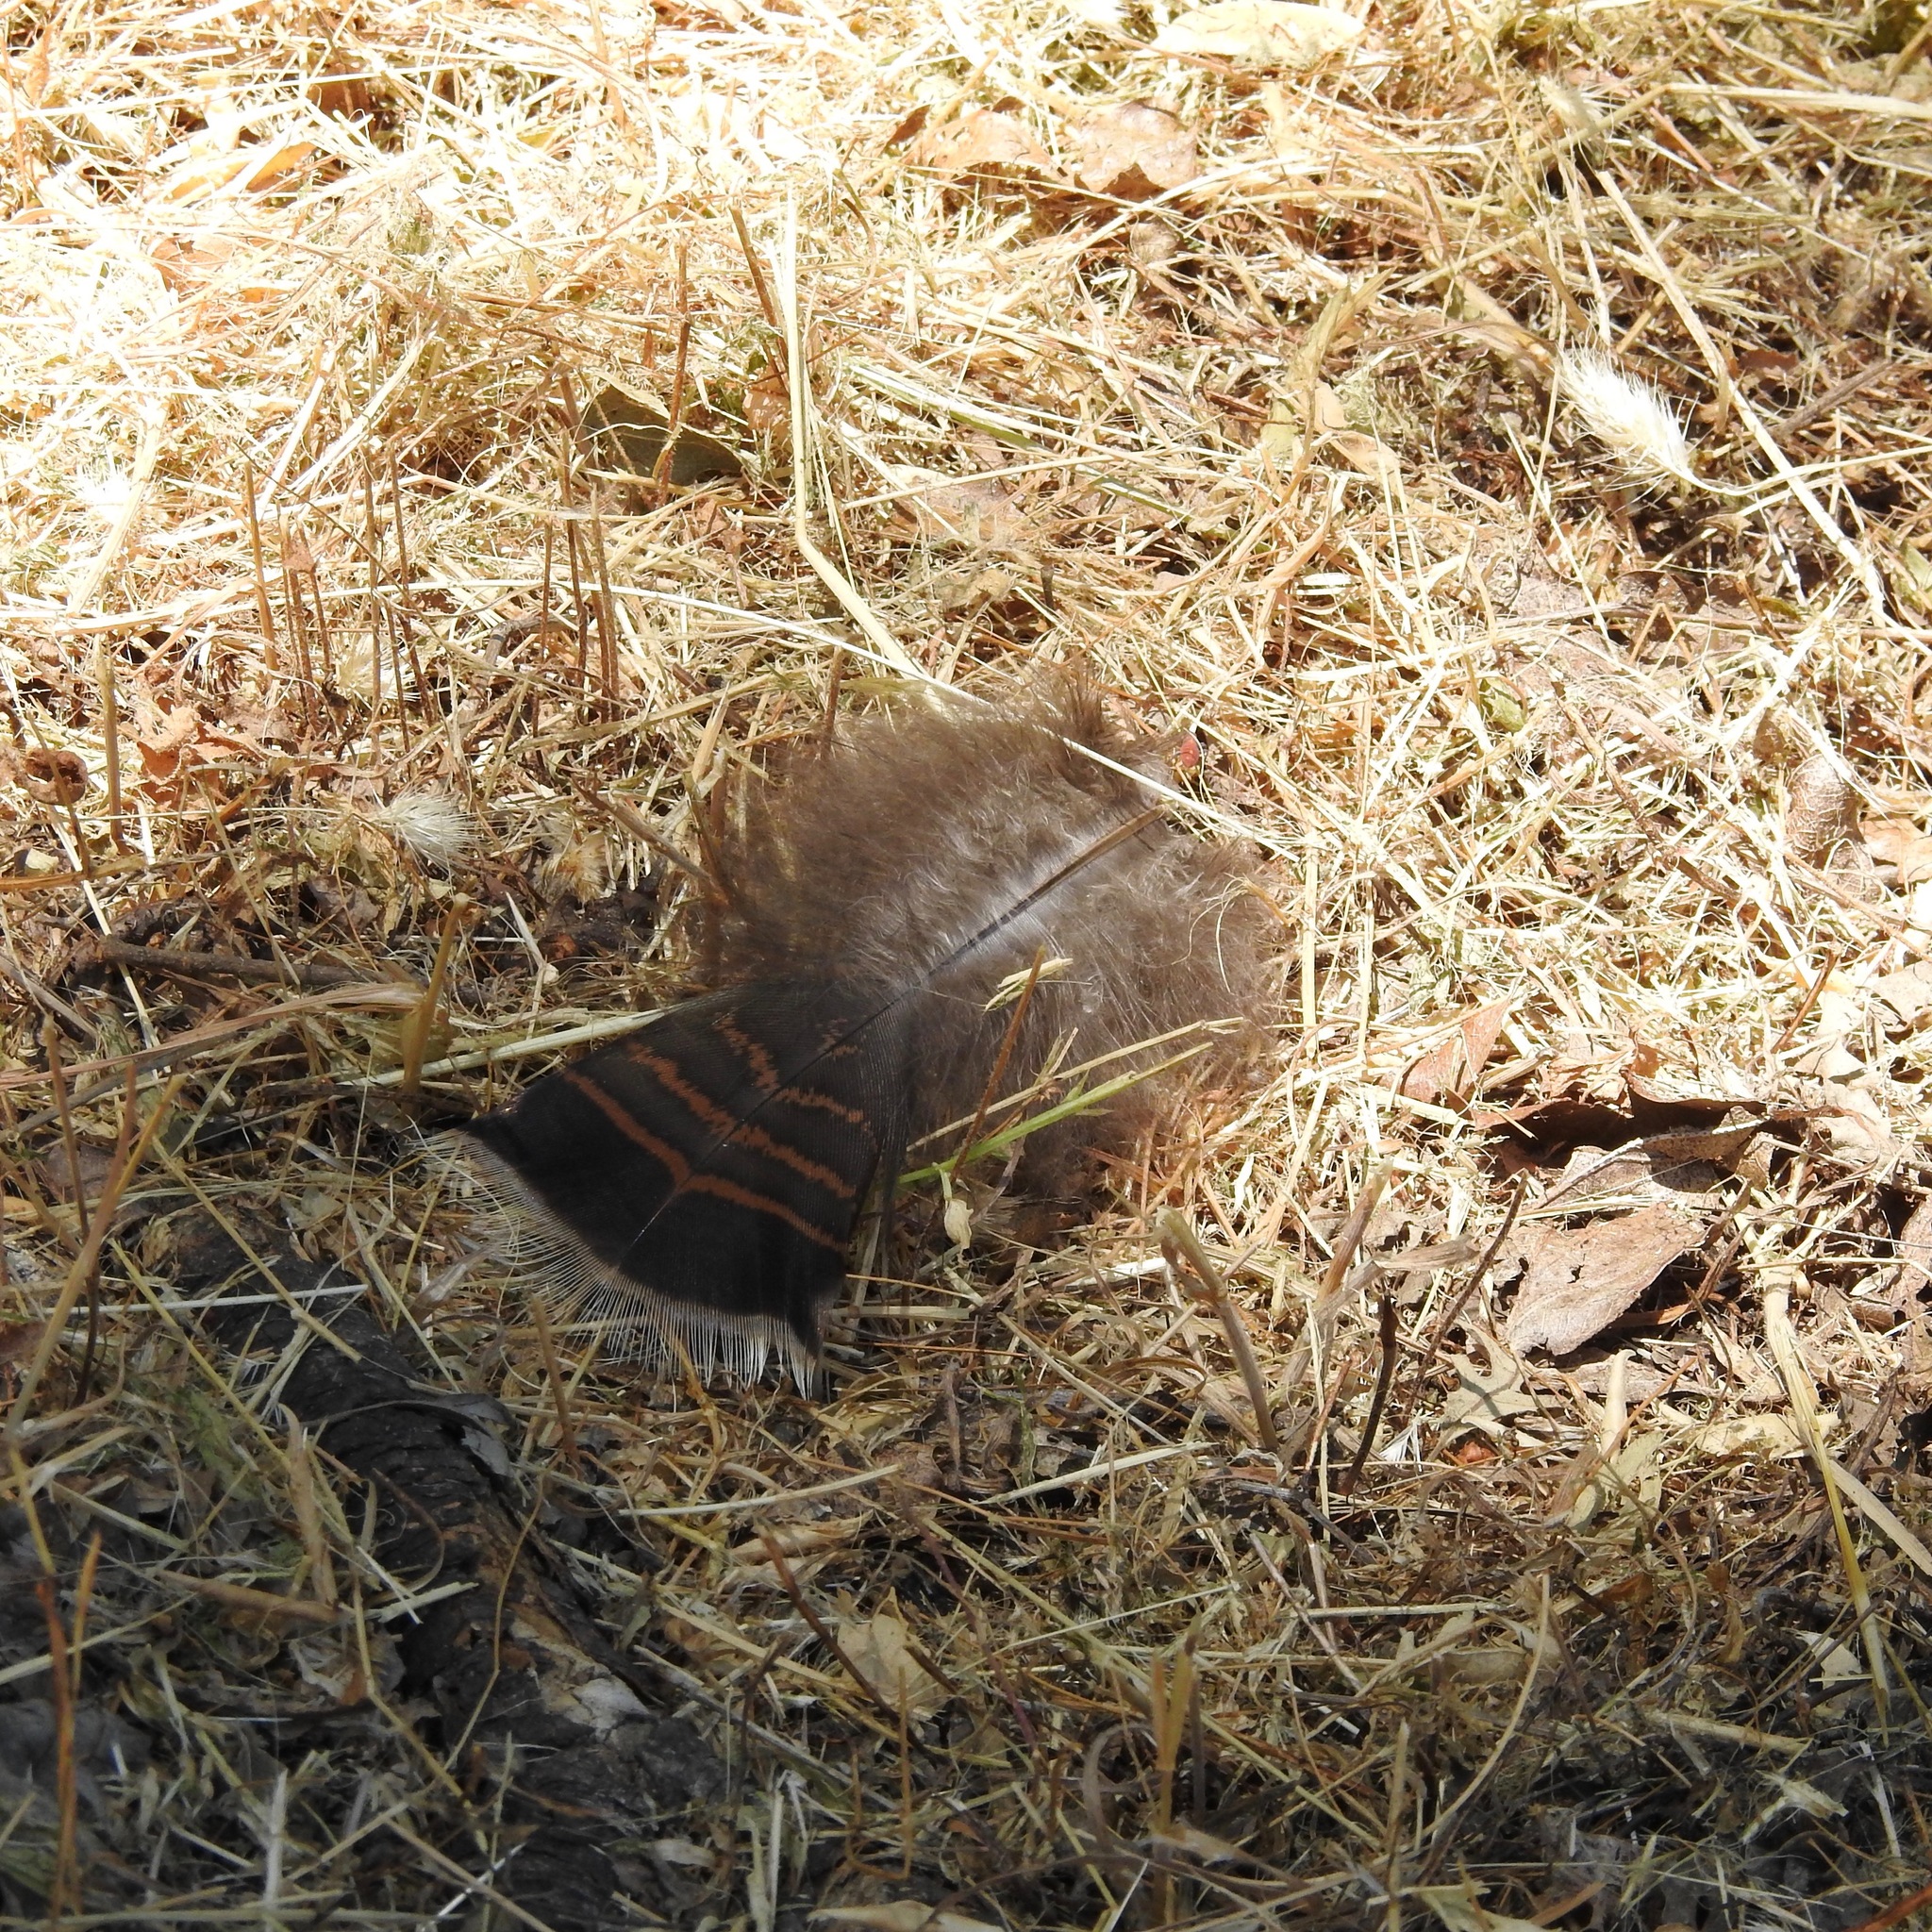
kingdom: Animalia
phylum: Chordata
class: Aves
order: Galliformes
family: Phasianidae
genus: Meleagris
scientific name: Meleagris gallopavo
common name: Wild turkey
